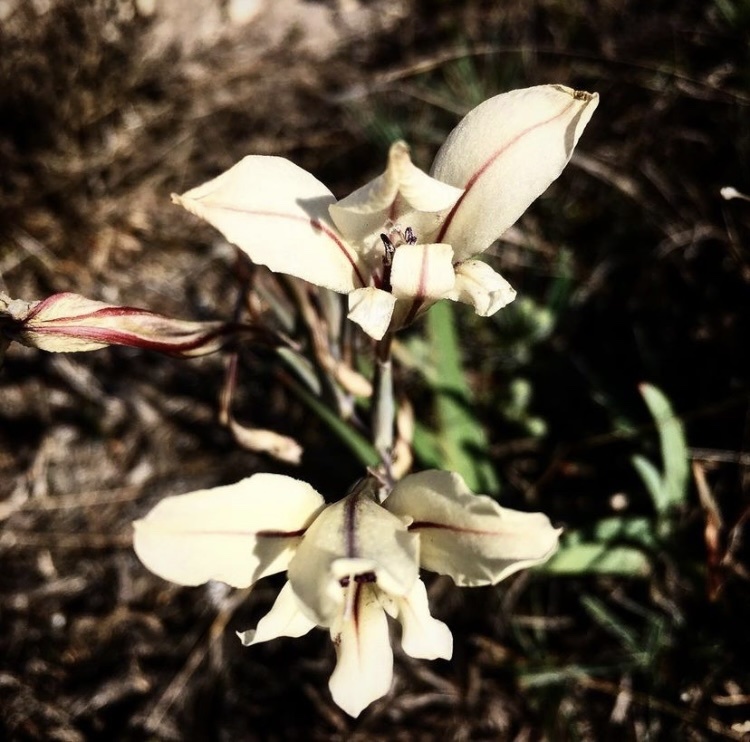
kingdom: Plantae
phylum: Tracheophyta
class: Liliopsida
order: Asparagales
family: Iridaceae
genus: Gladiolus
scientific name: Gladiolus floribundus
